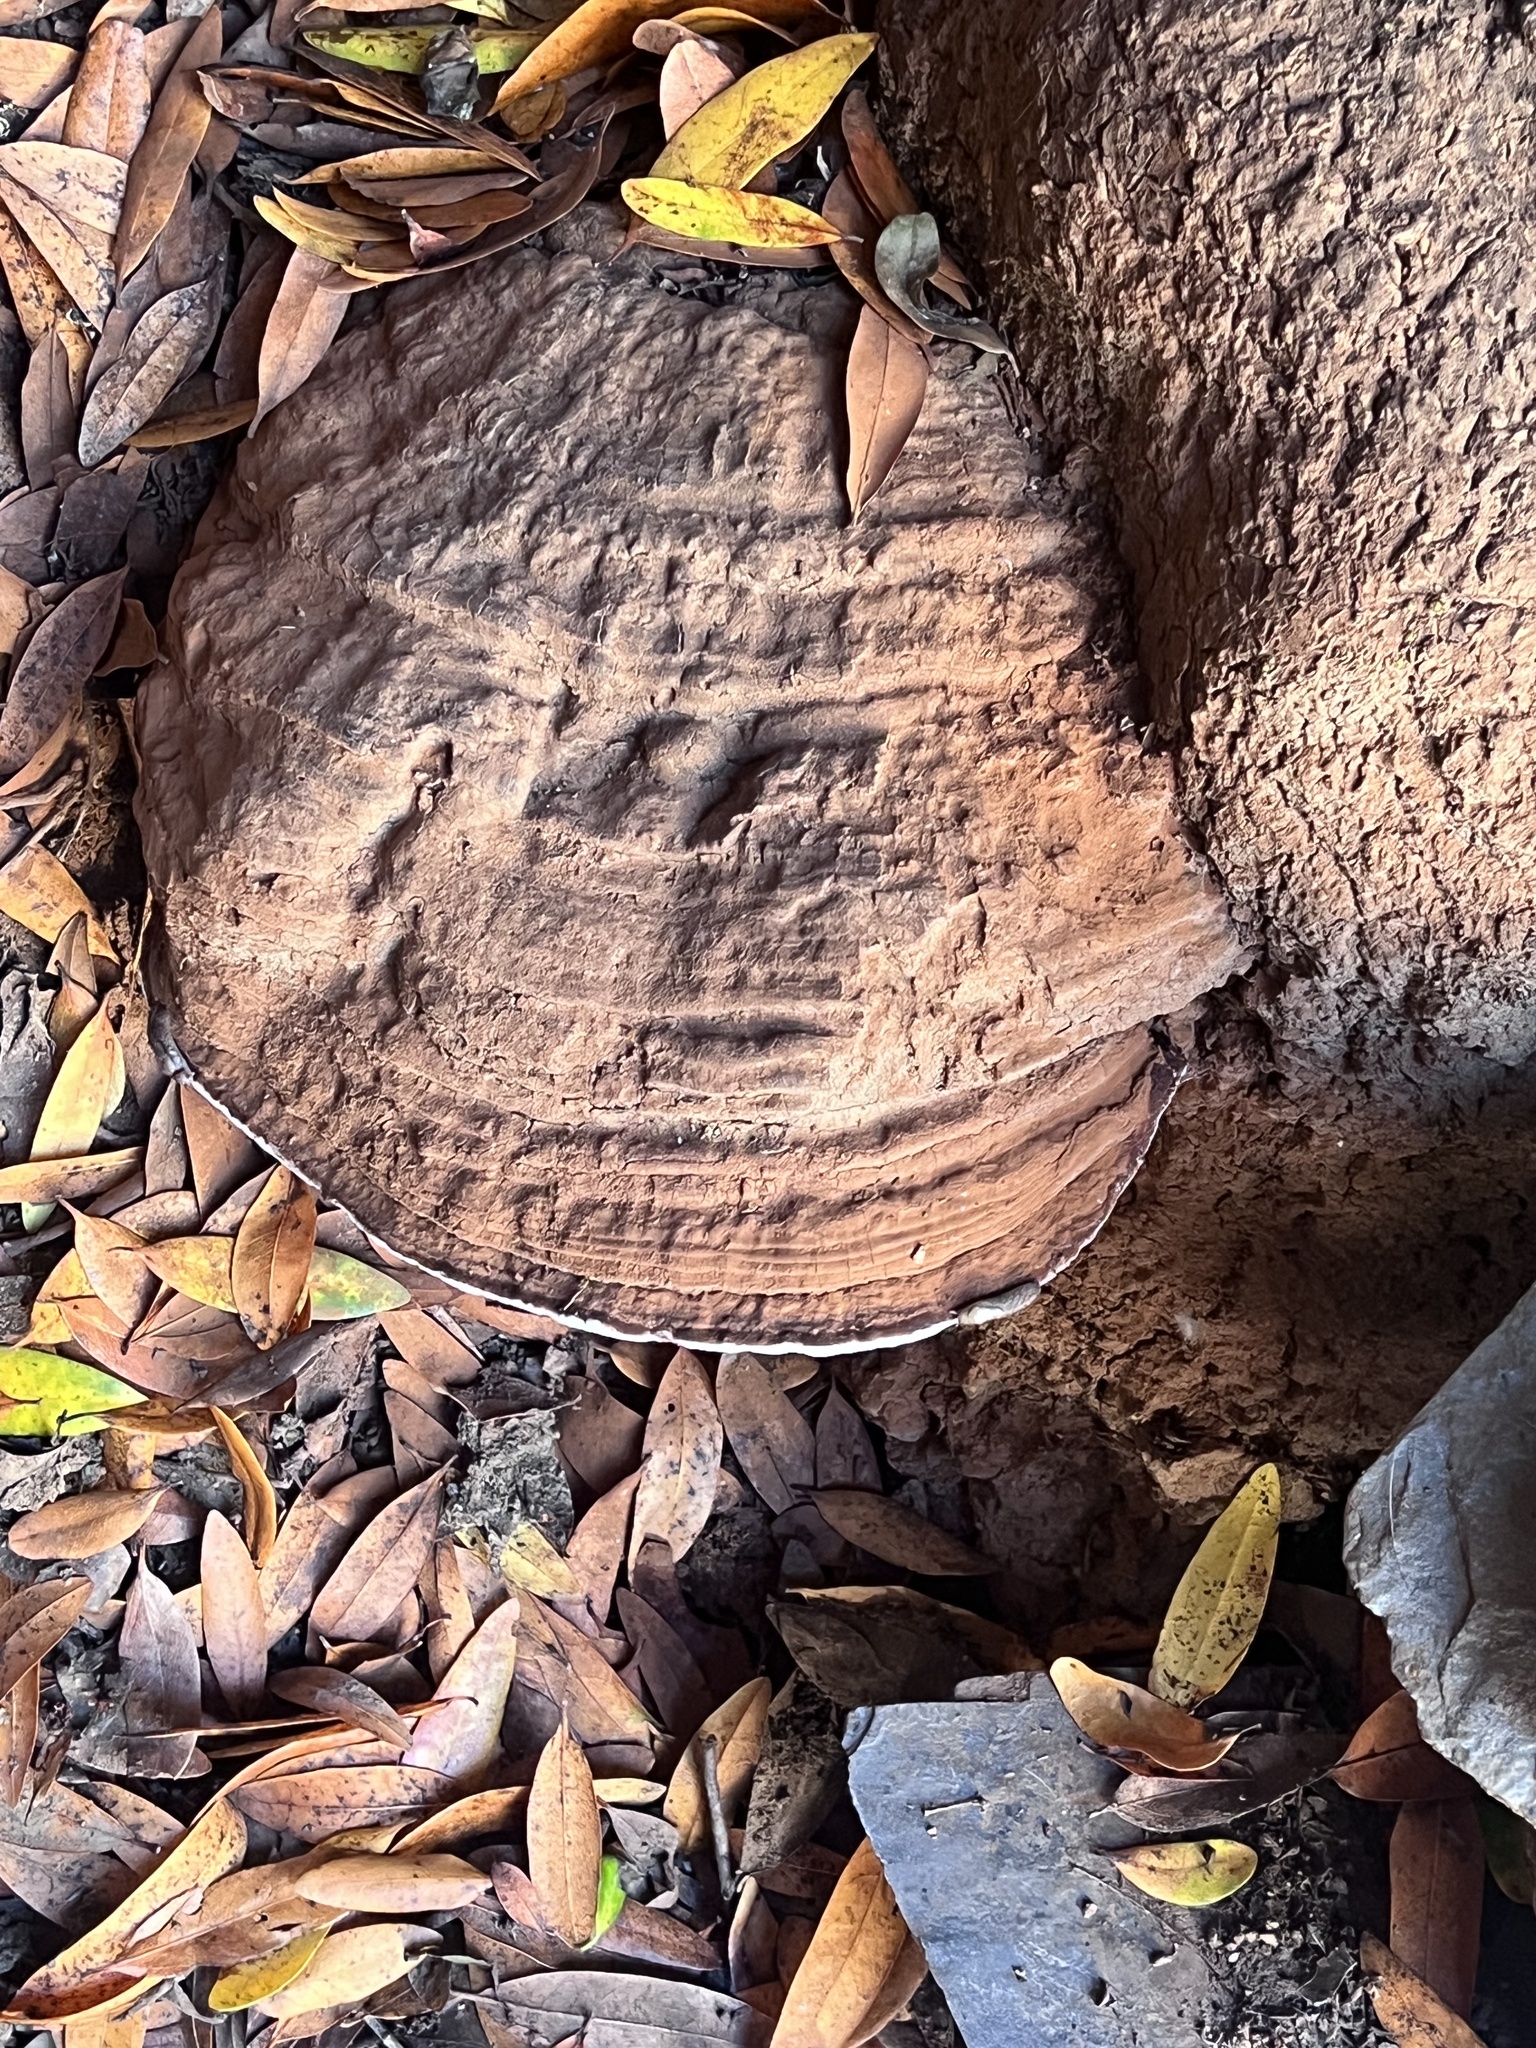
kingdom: Fungi
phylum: Basidiomycota
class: Agaricomycetes
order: Polyporales
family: Polyporaceae
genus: Ganoderma
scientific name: Ganoderma brownii
